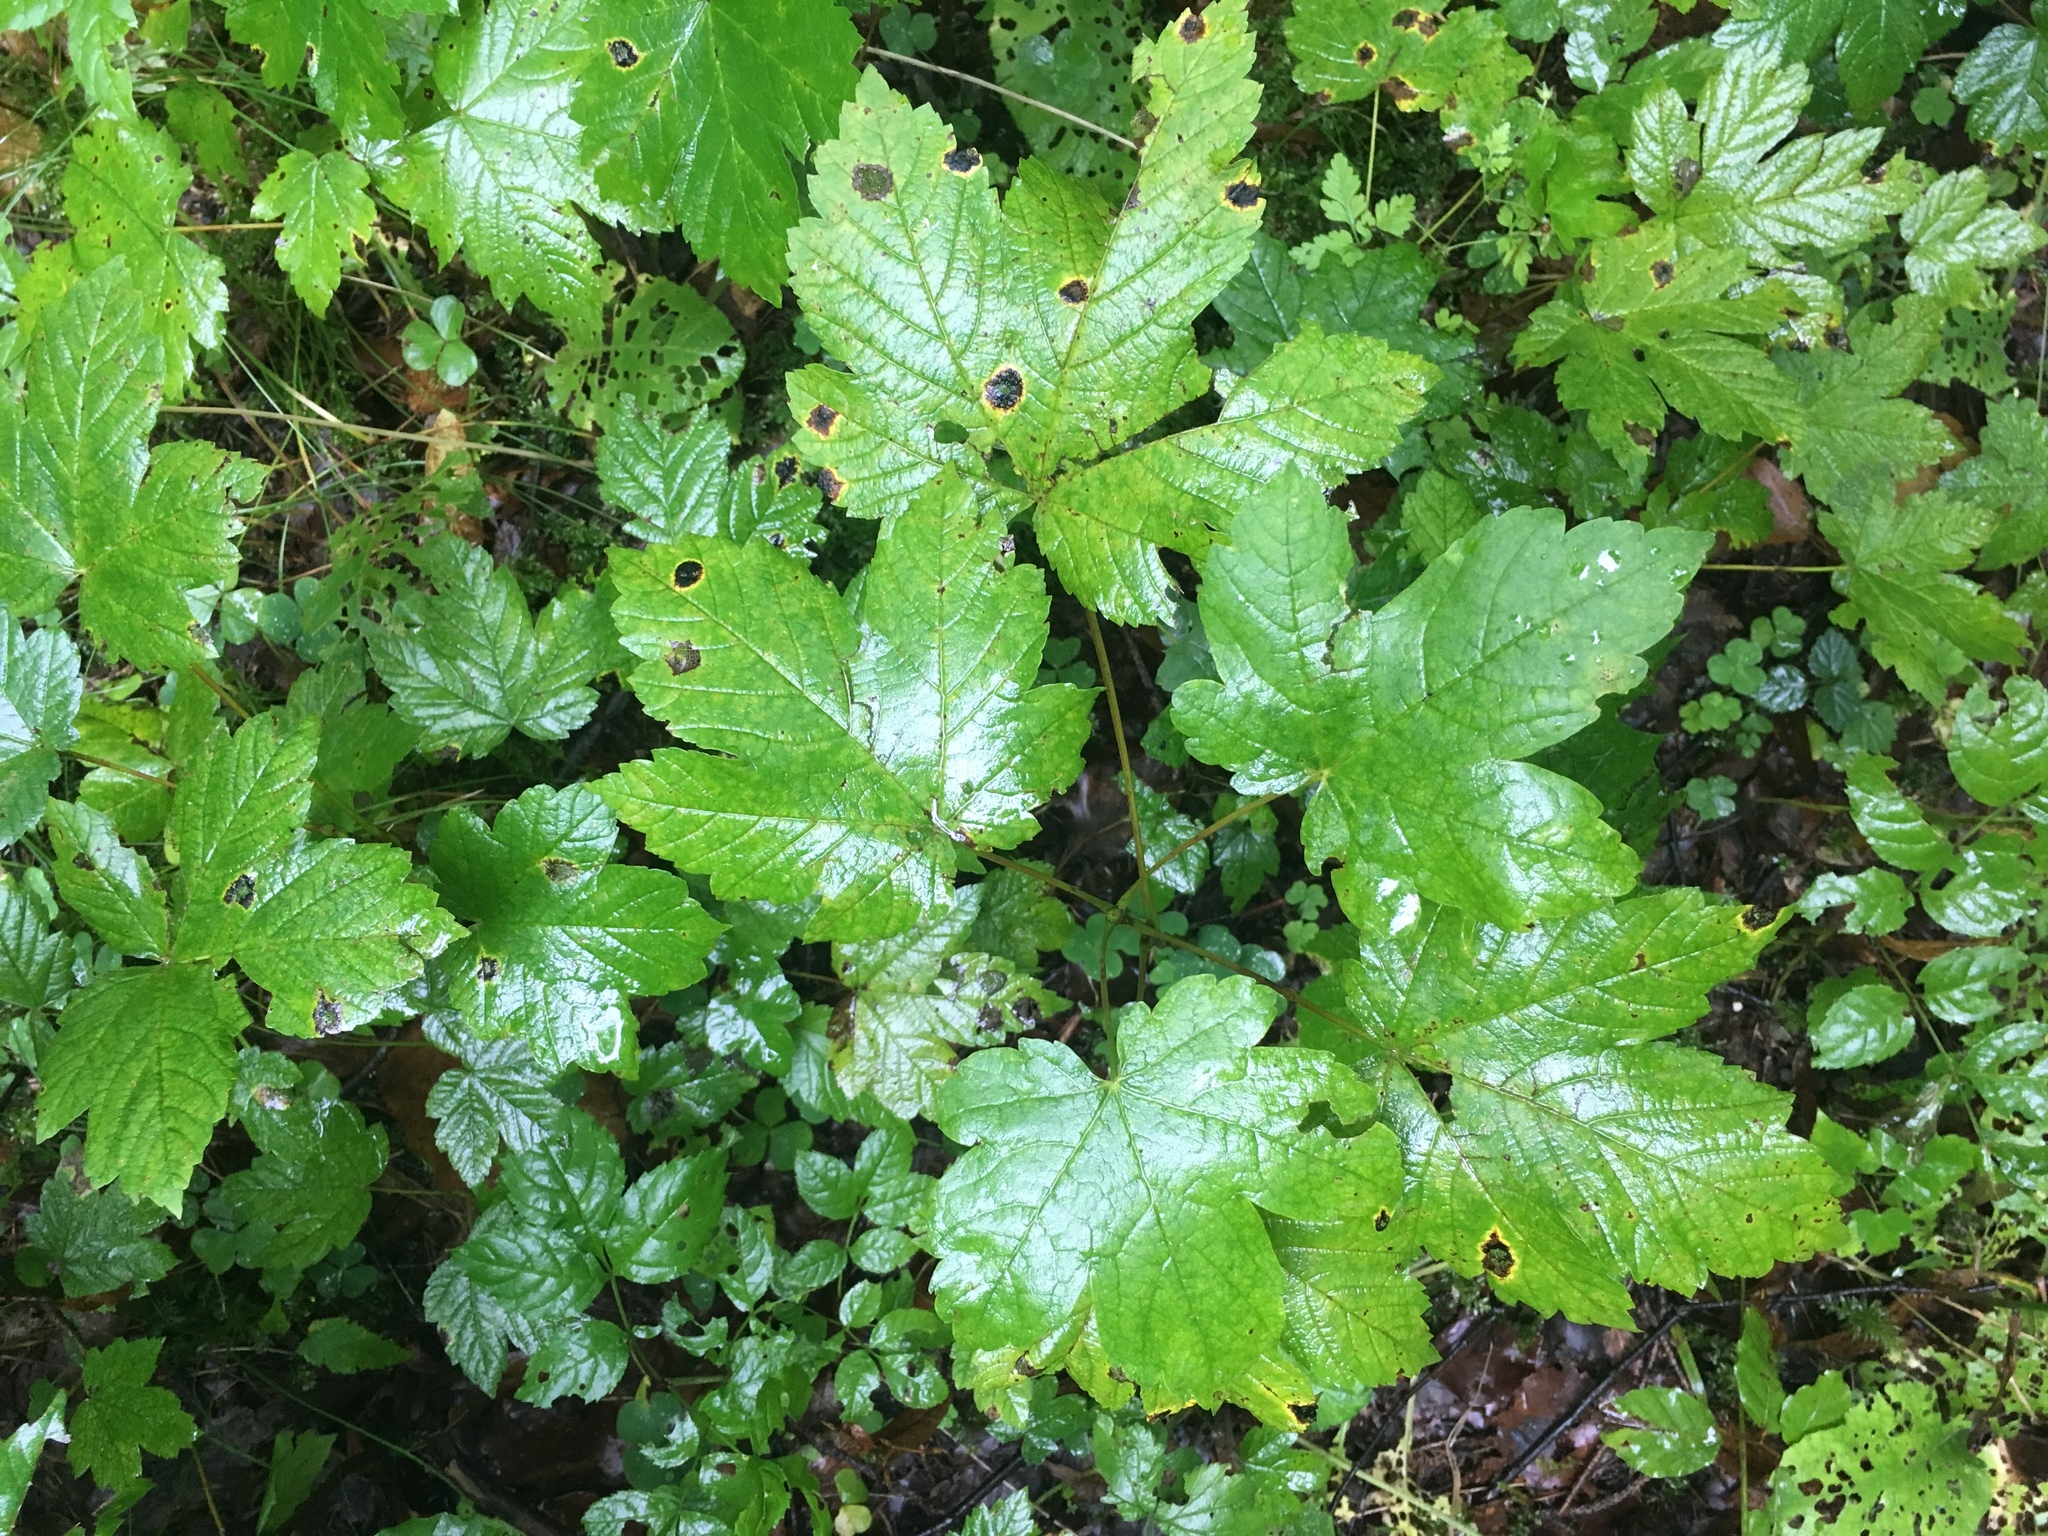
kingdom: Plantae
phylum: Tracheophyta
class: Magnoliopsida
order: Sapindales
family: Sapindaceae
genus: Acer
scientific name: Acer pseudoplatanus
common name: Sycamore
